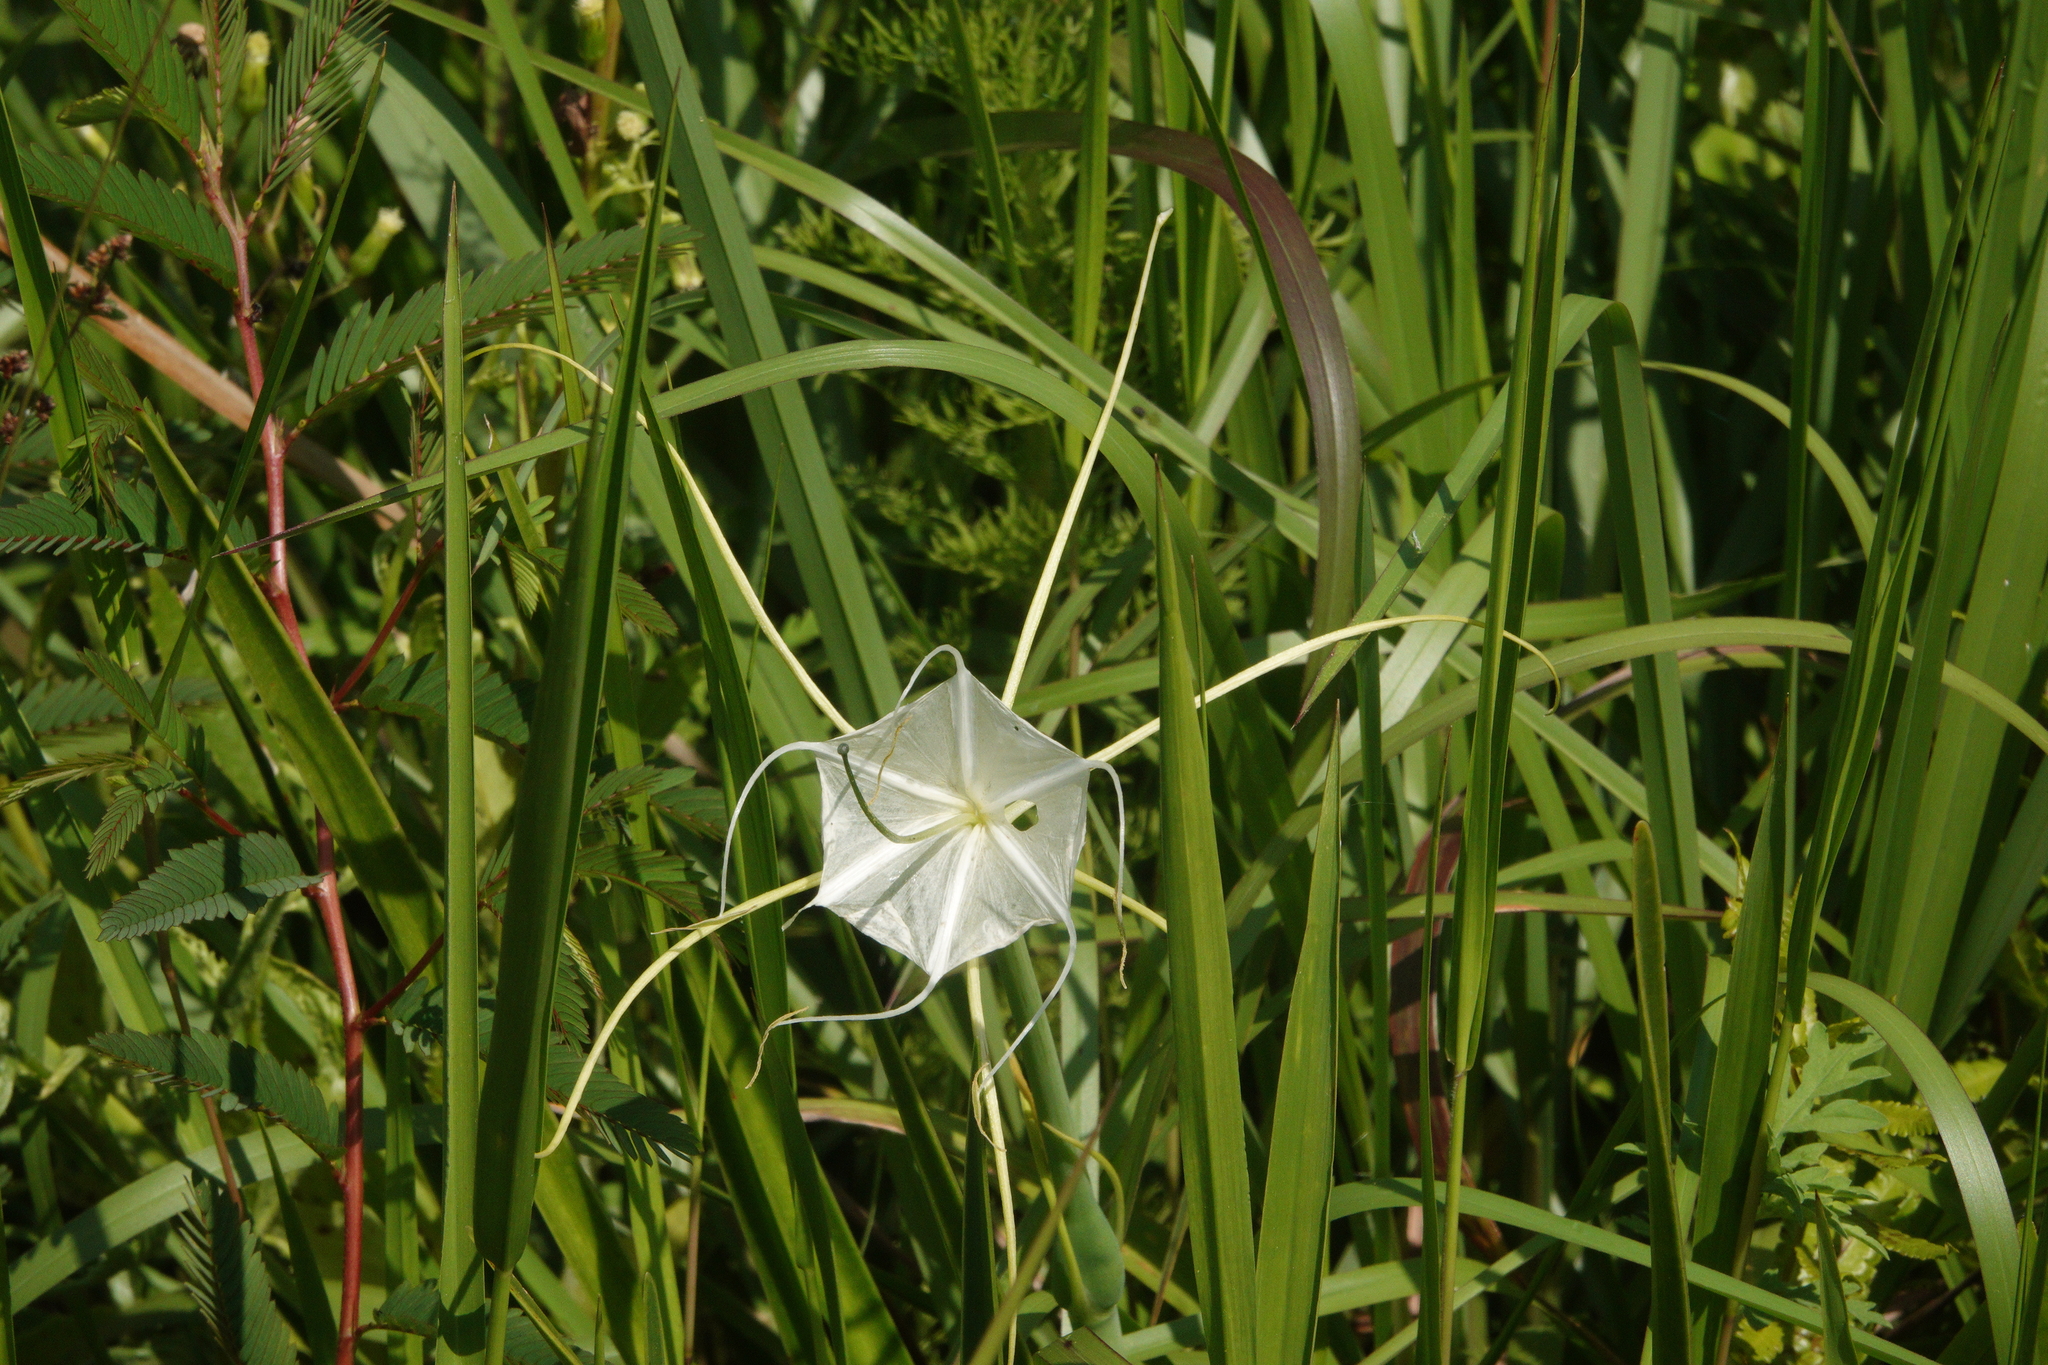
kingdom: Plantae
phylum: Tracheophyta
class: Liliopsida
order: Asparagales
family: Amaryllidaceae
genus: Hymenocallis
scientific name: Hymenocallis palmeri
